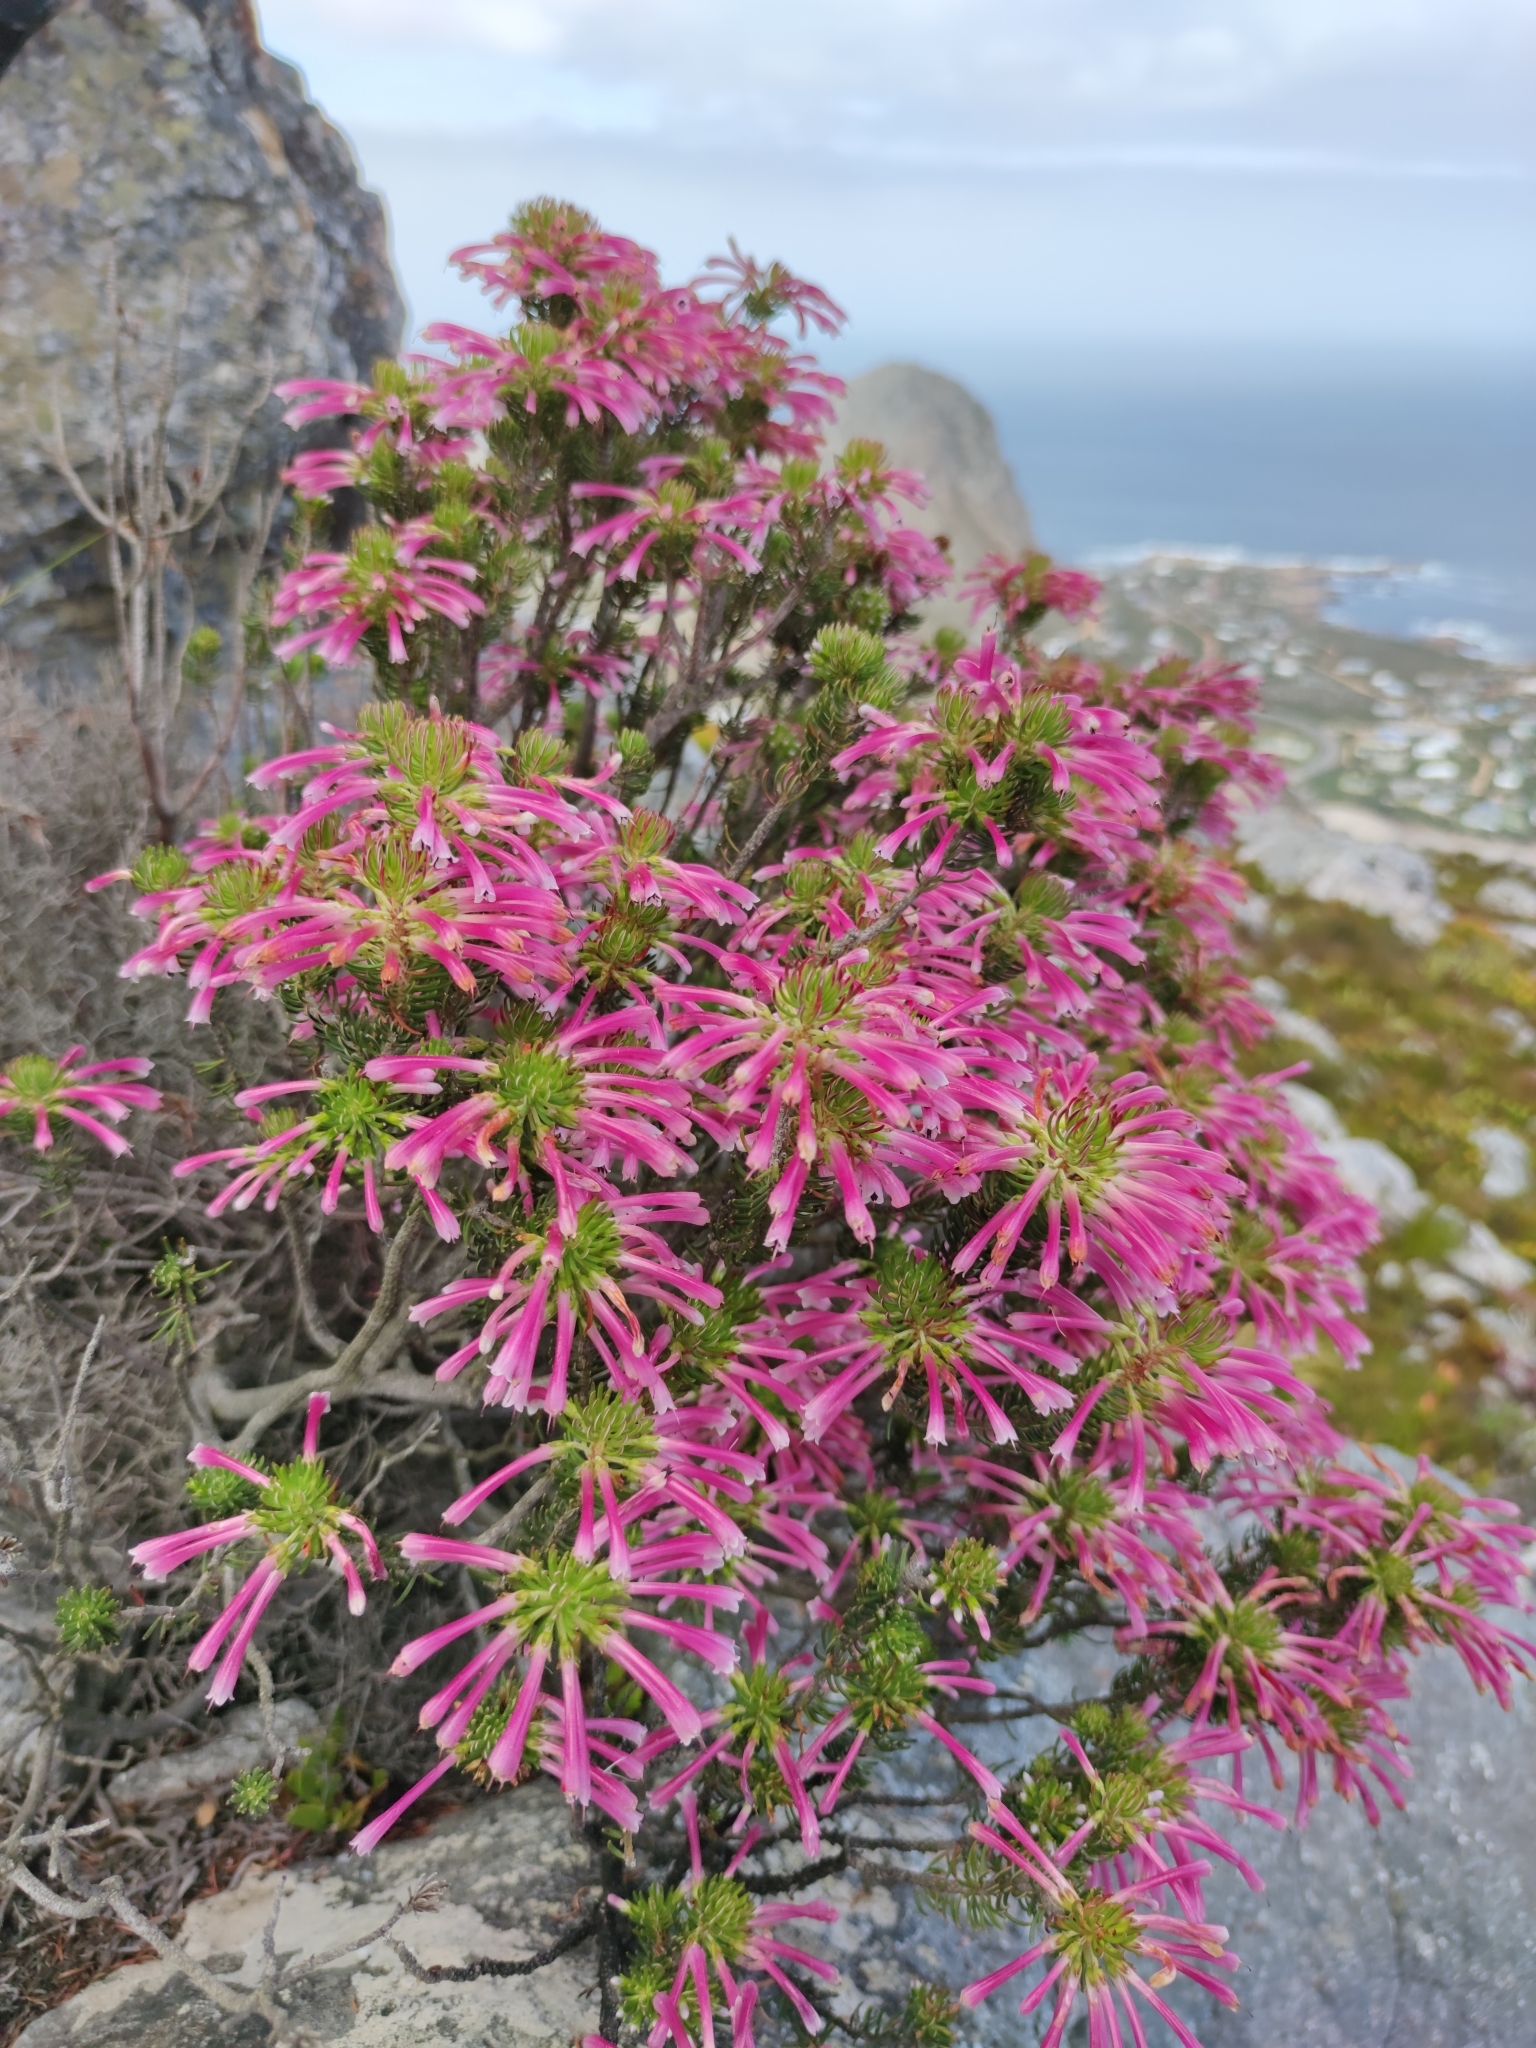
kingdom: Plantae
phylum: Tracheophyta
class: Magnoliopsida
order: Ericales
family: Ericaceae
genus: Erica
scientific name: Erica thomae
